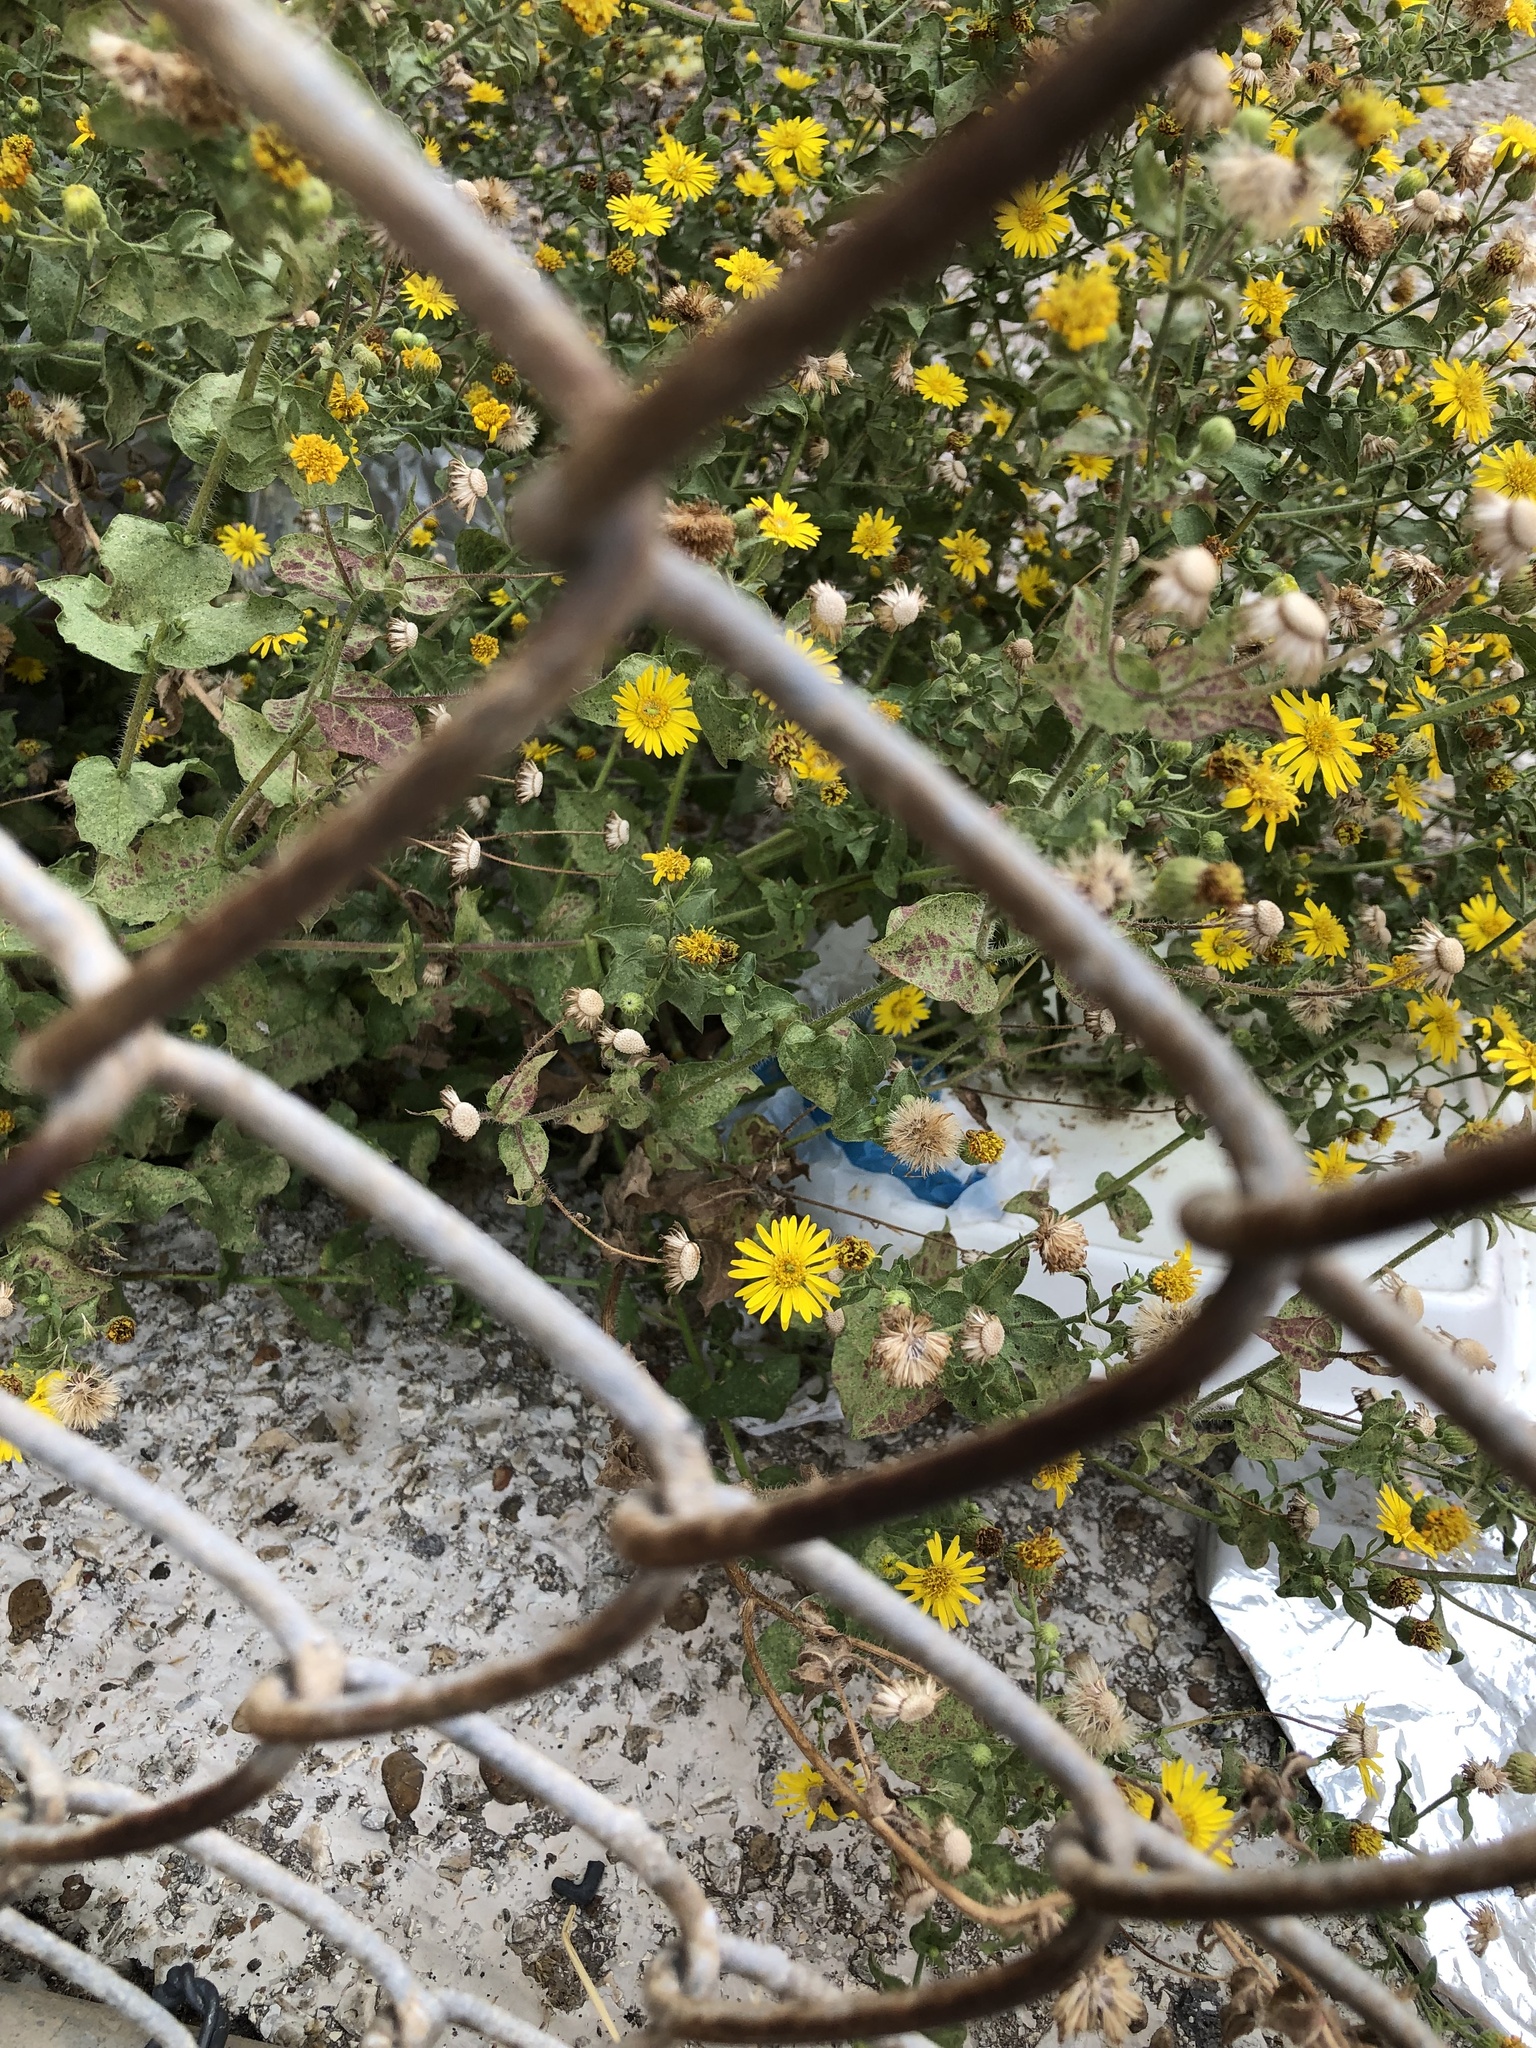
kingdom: Plantae
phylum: Tracheophyta
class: Magnoliopsida
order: Asterales
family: Asteraceae
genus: Heterotheca
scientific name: Heterotheca subaxillaris
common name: Camphorweed
